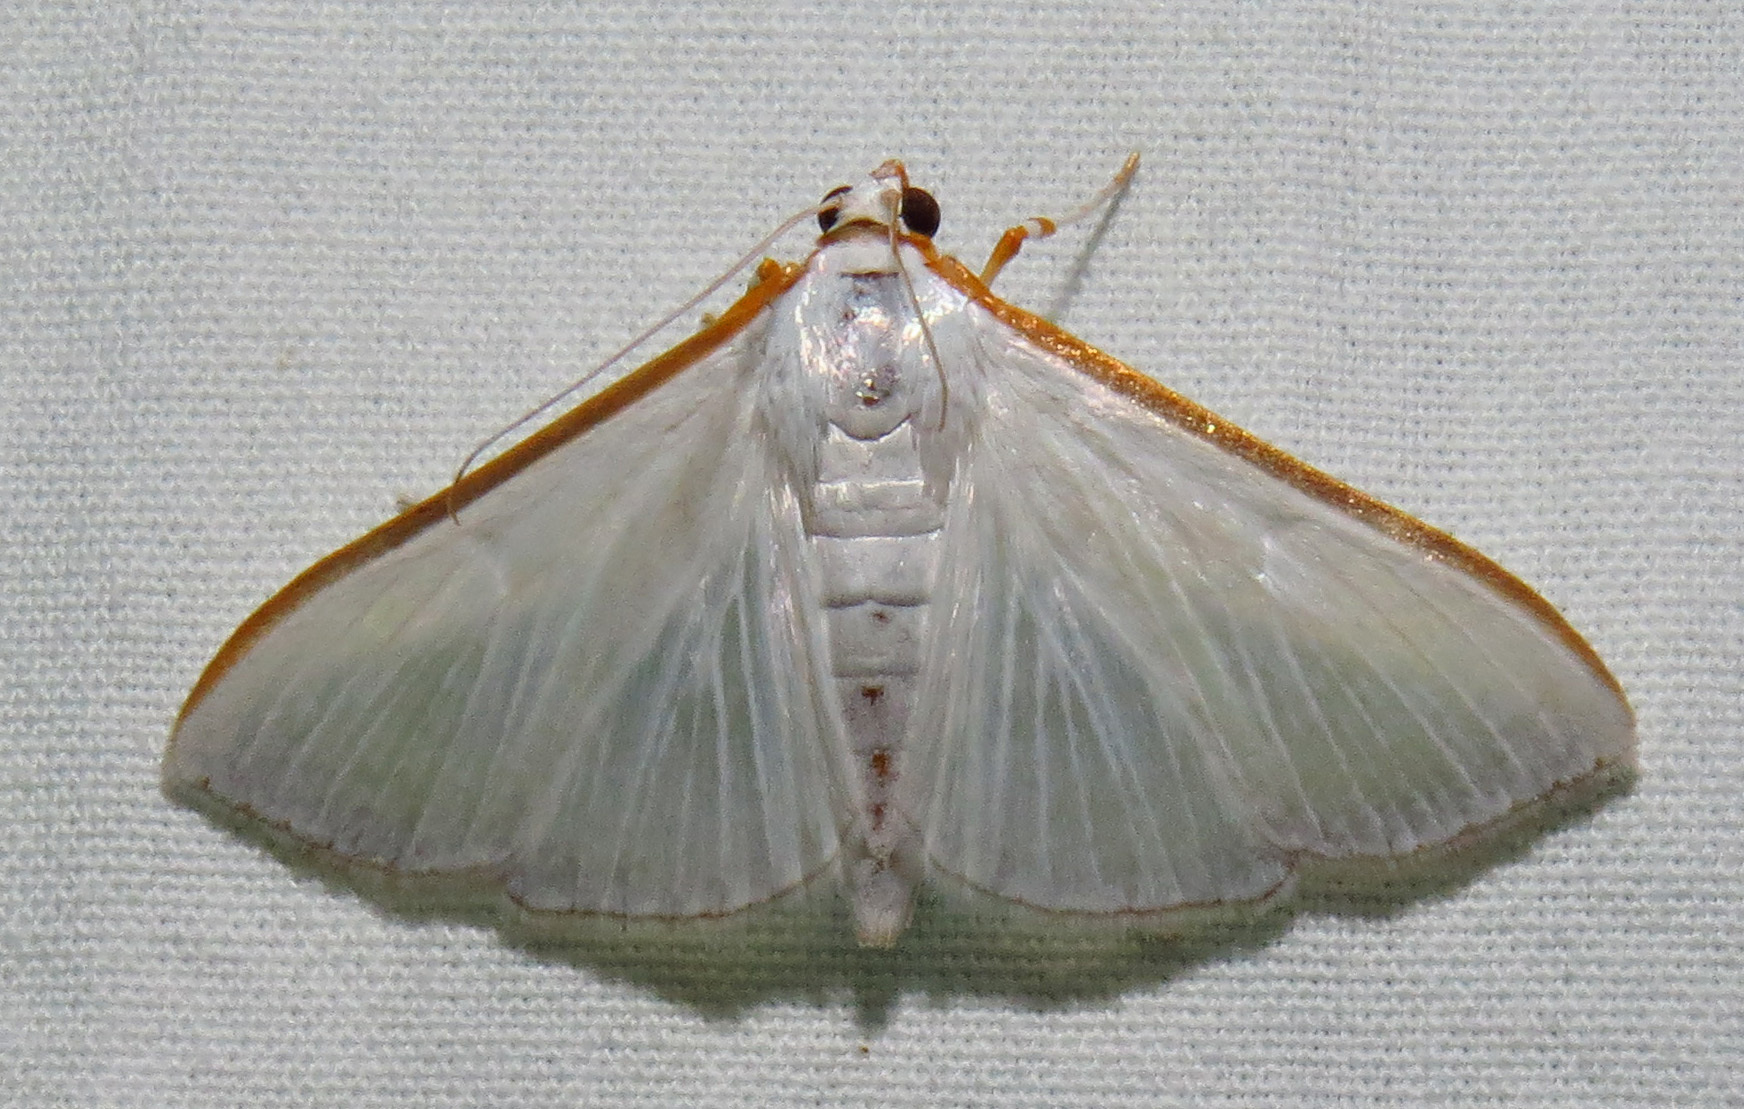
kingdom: Animalia
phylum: Arthropoda
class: Insecta
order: Lepidoptera
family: Crambidae
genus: Diaphania
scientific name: Diaphania costata
